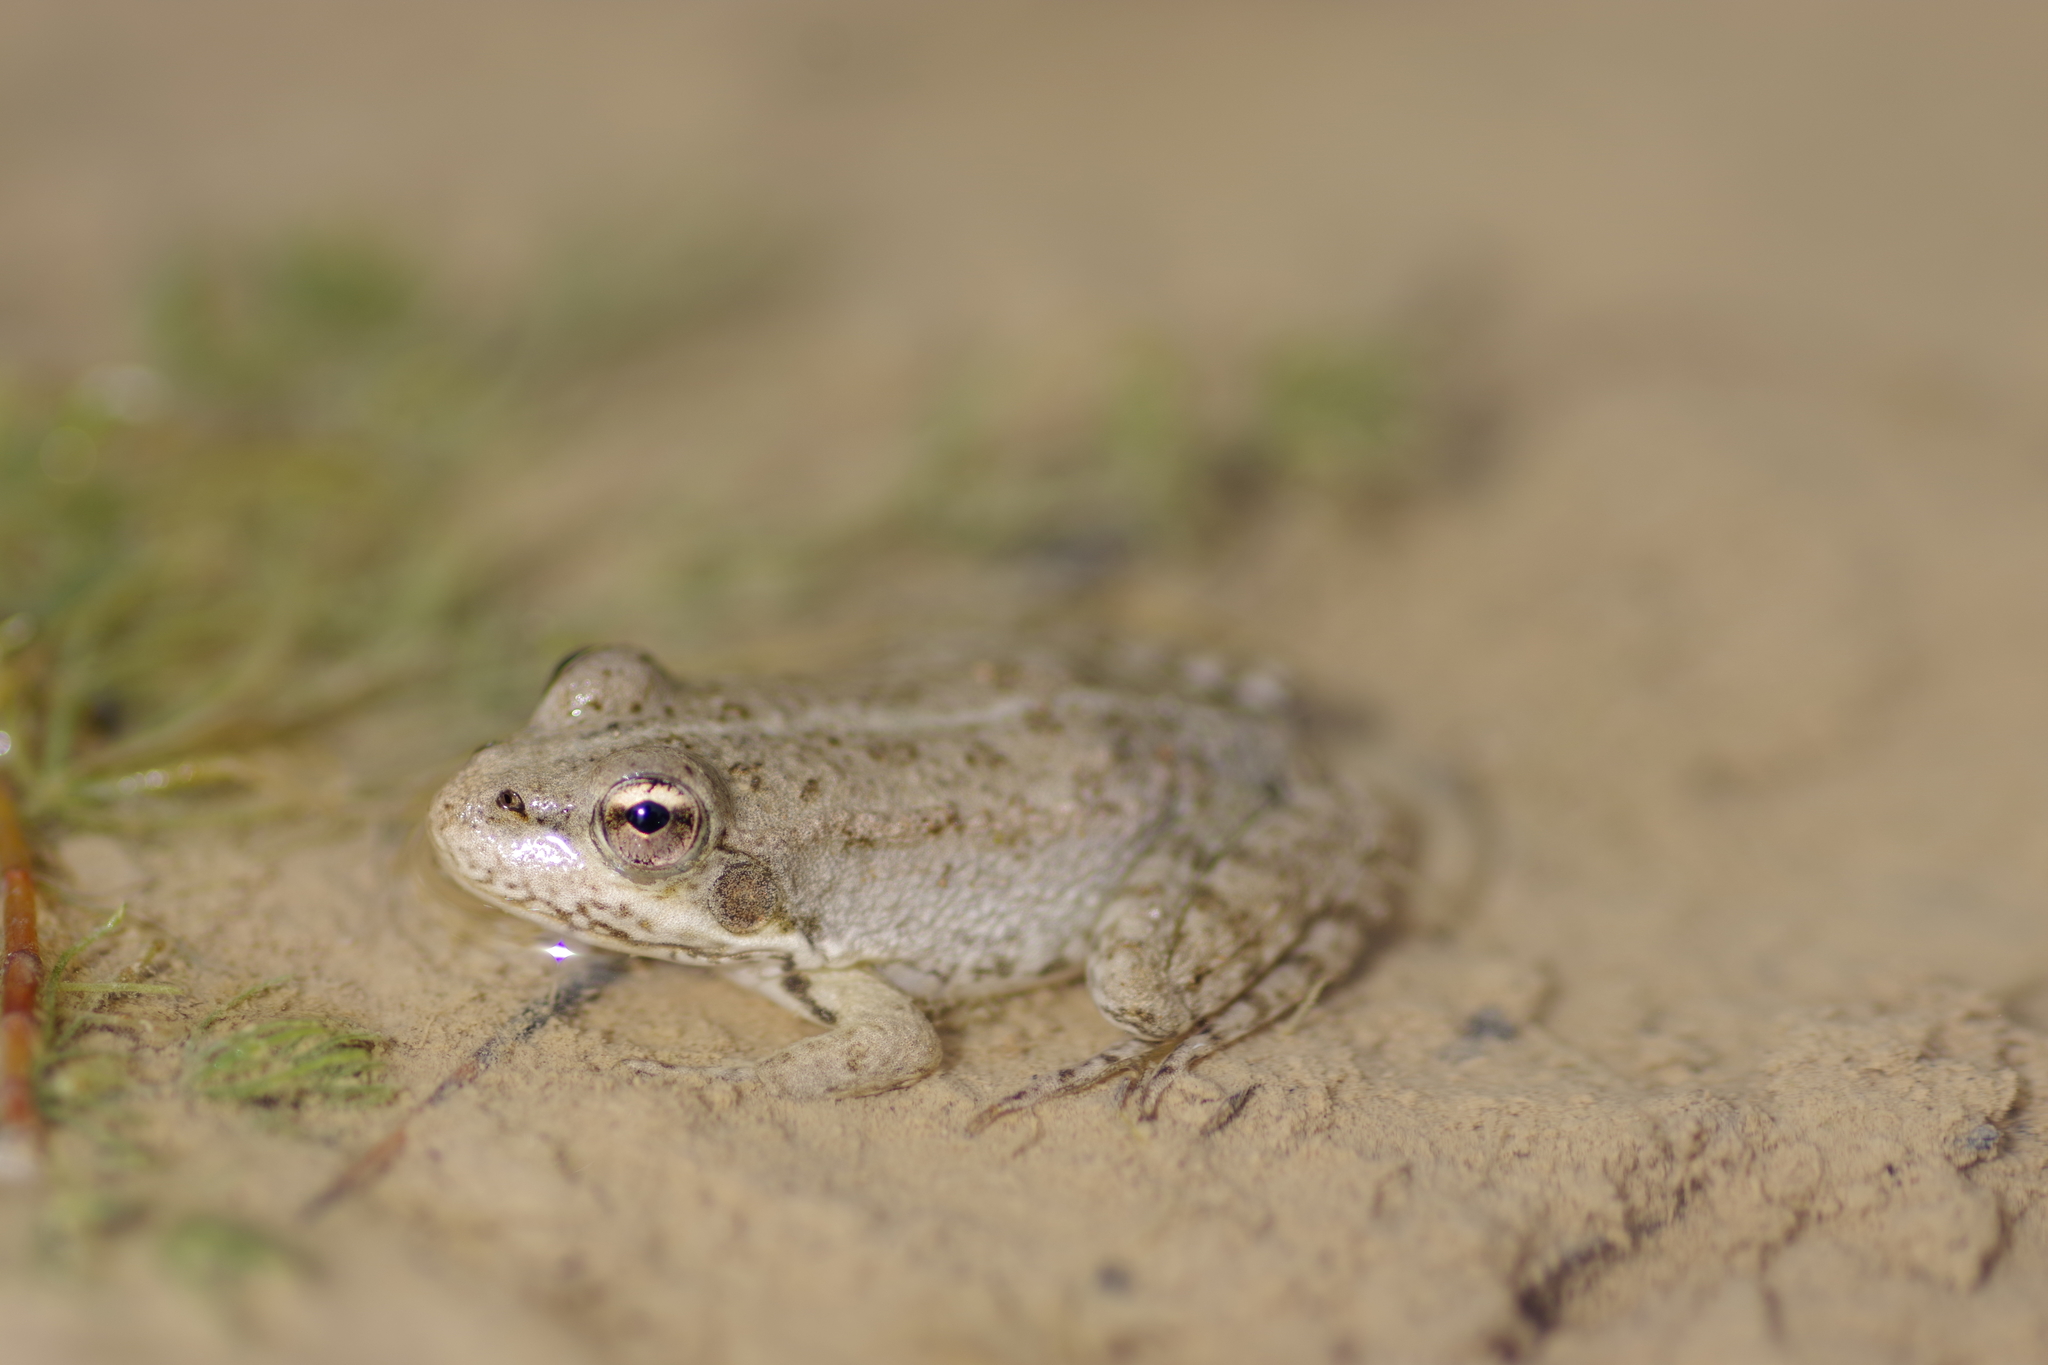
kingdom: Animalia
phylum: Chordata
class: Amphibia
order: Anura
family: Ranidae
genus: Pelophylax
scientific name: Pelophylax
